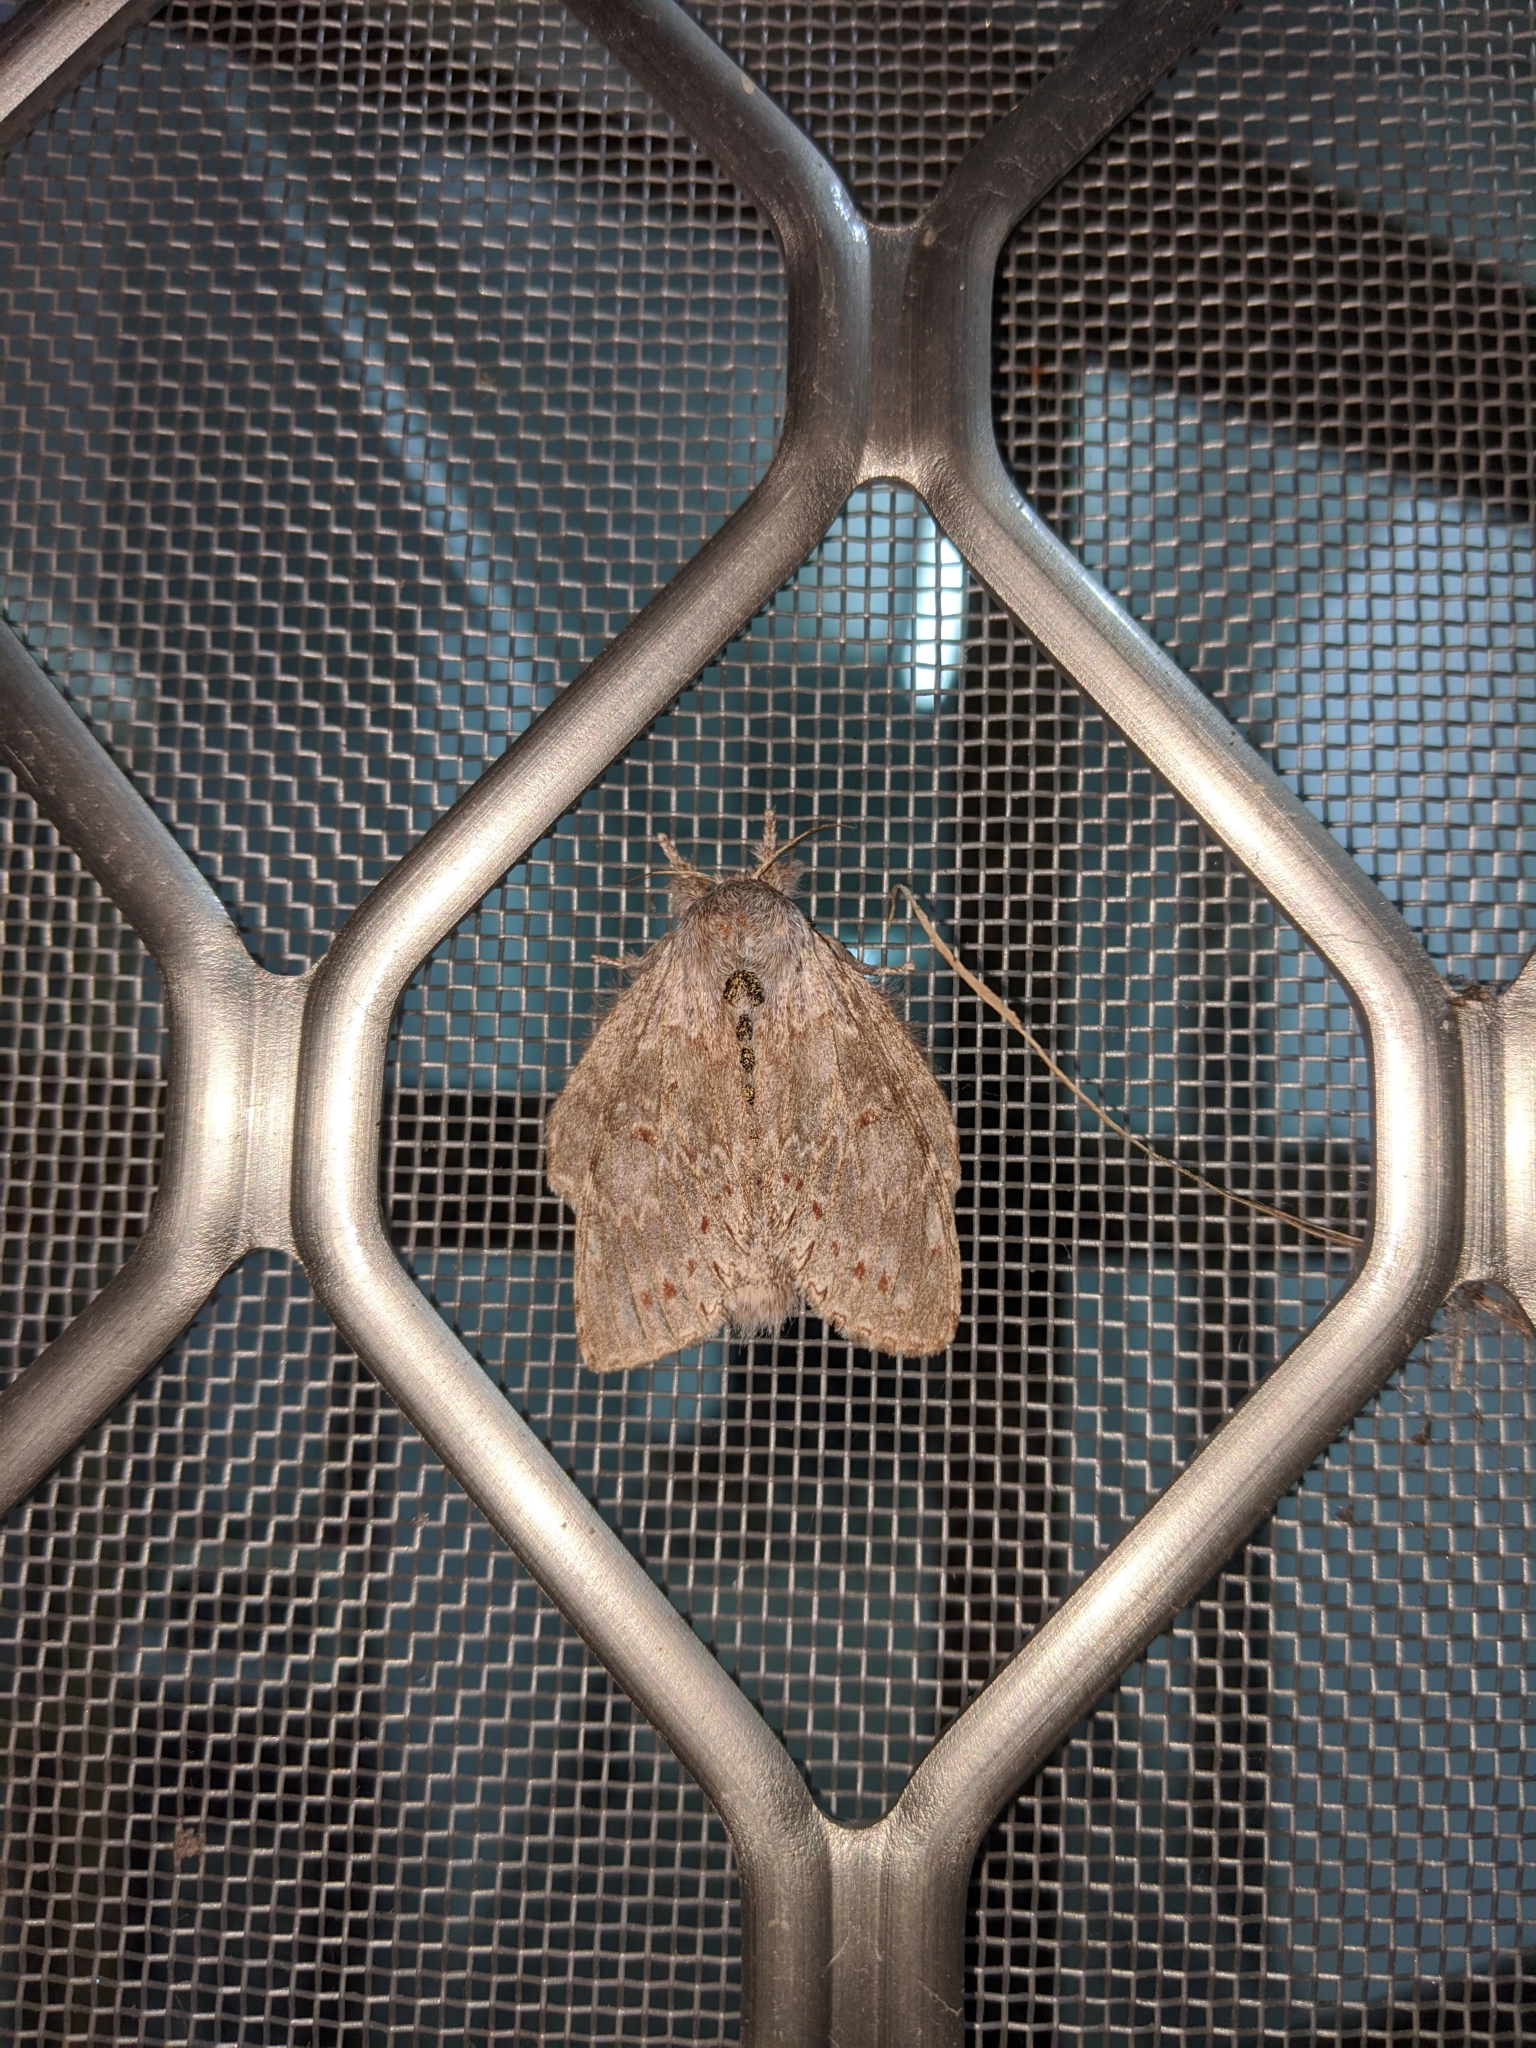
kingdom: Animalia
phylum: Arthropoda
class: Insecta
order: Lepidoptera
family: Notodontidae
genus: Stauropus
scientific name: Stauropus alternus
